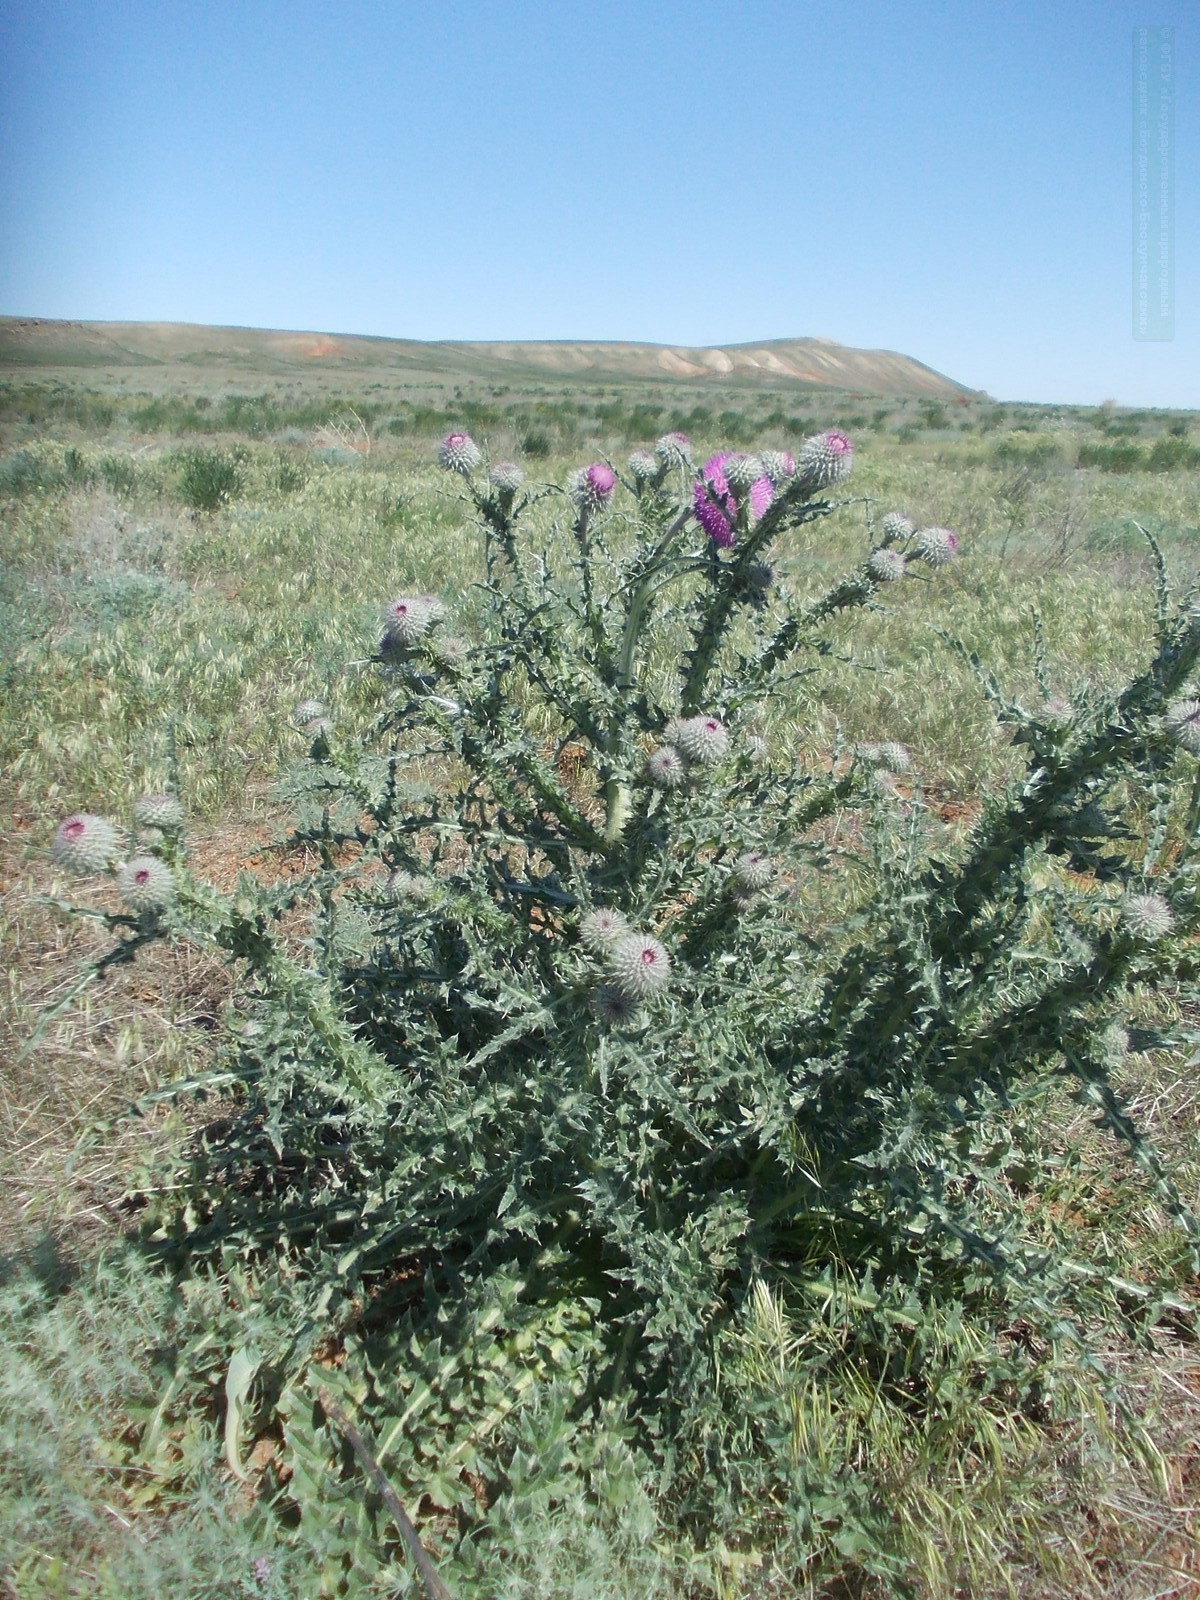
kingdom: Plantae
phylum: Tracheophyta
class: Magnoliopsida
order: Asterales
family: Asteraceae
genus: Carduus
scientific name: Carduus uncinatus
